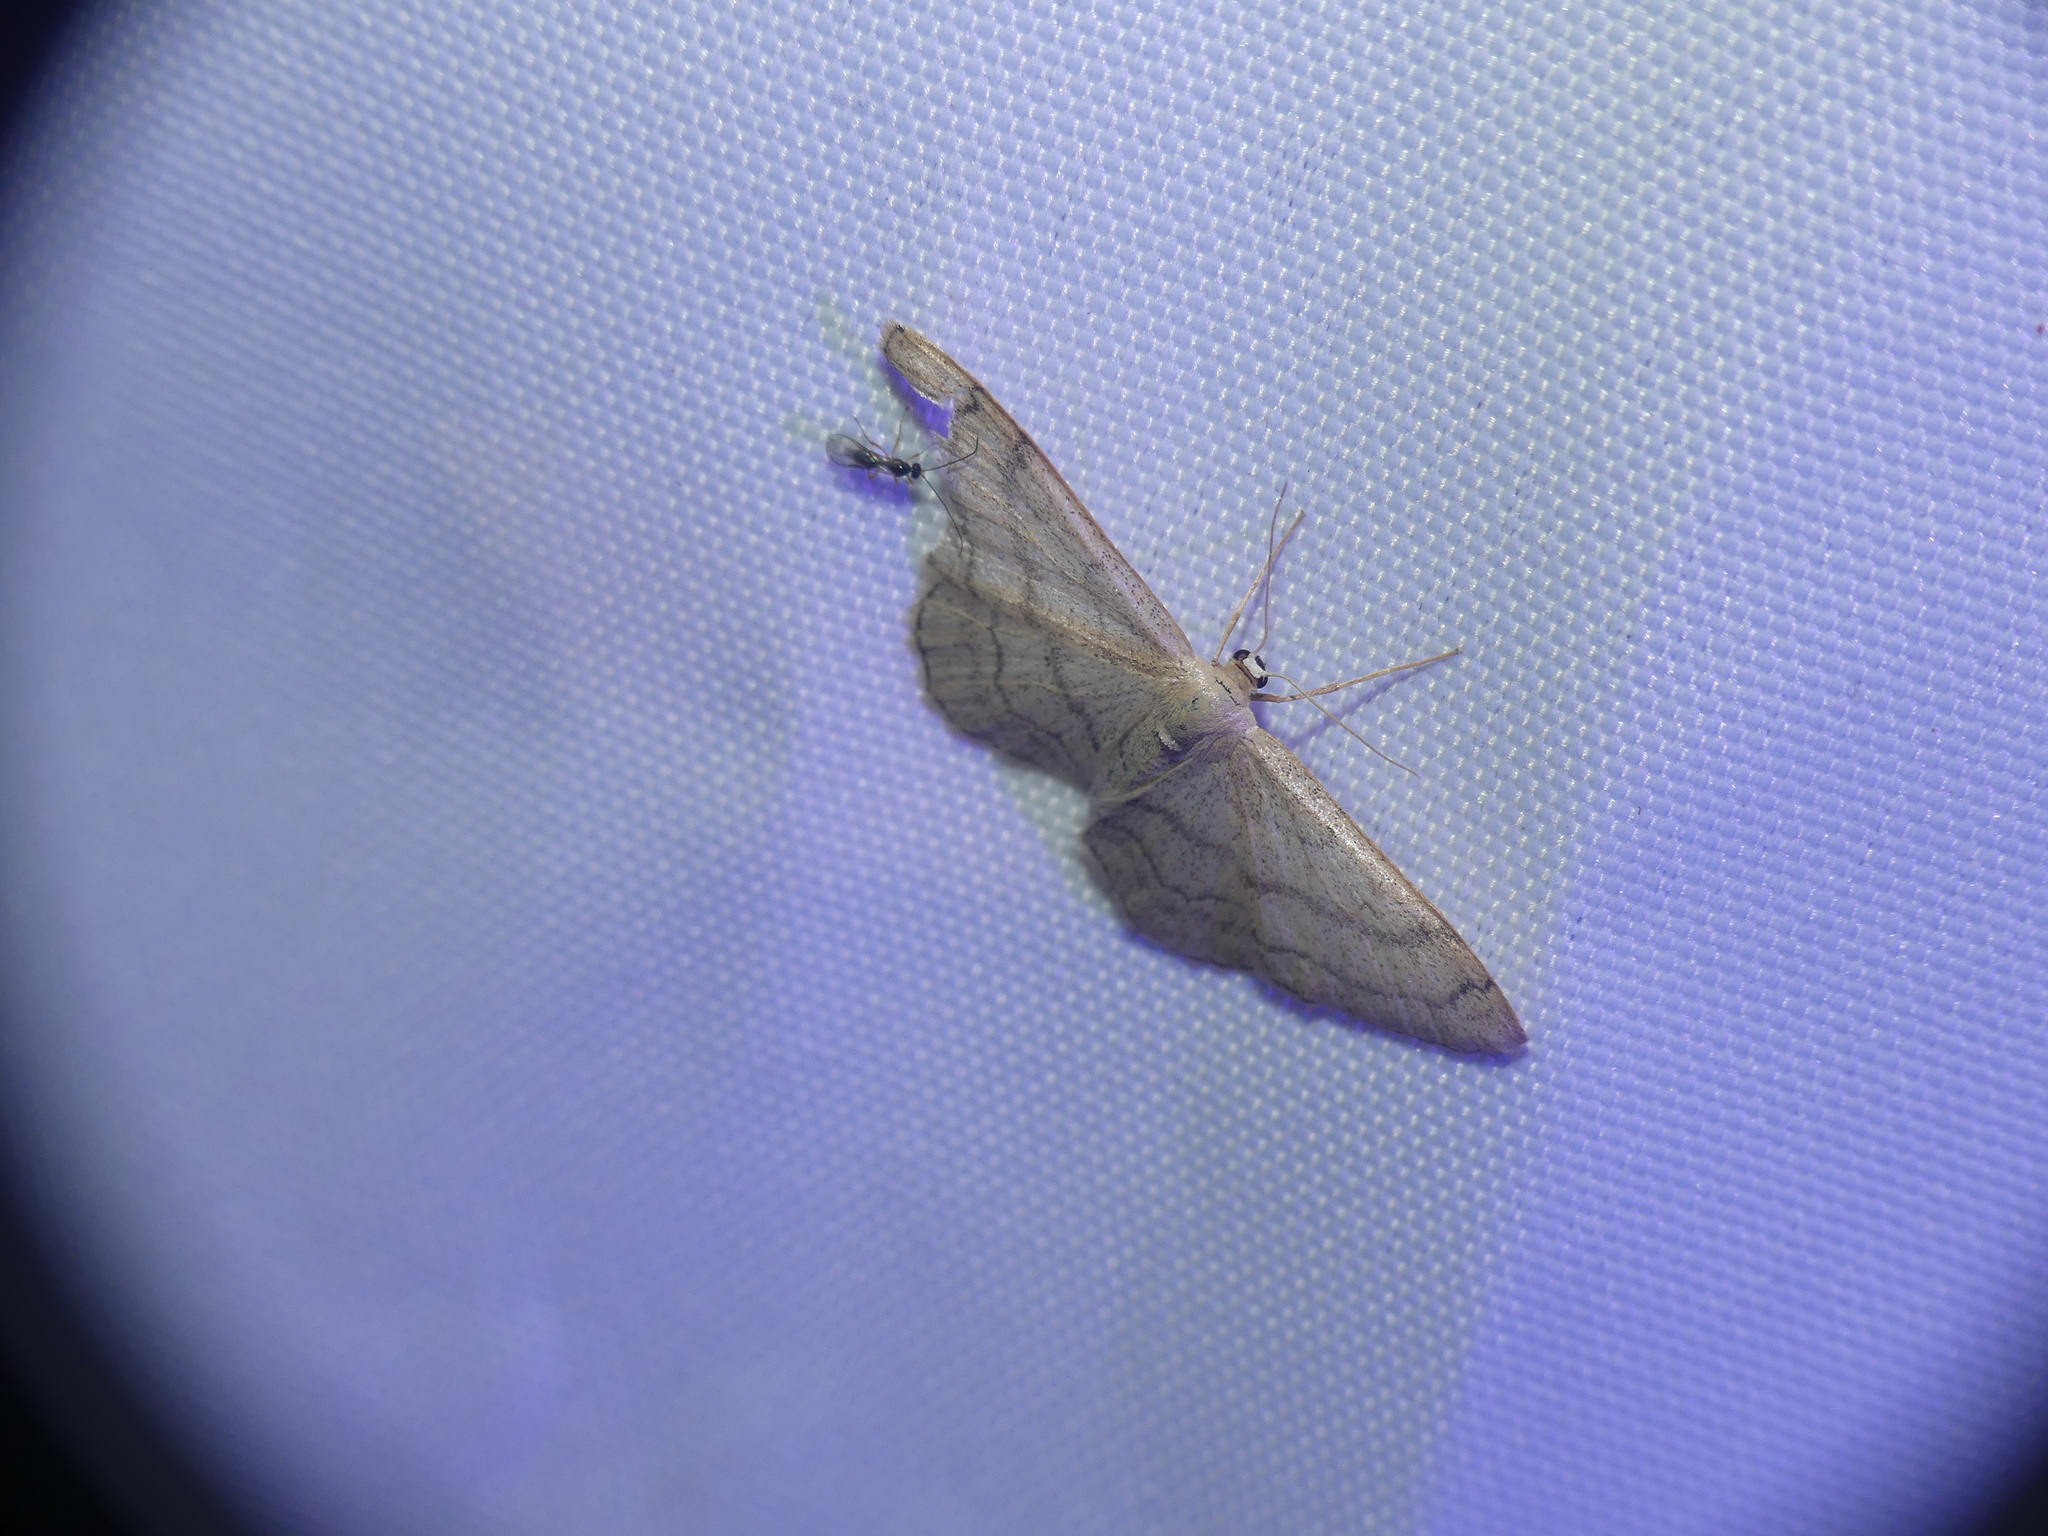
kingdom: Animalia
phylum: Arthropoda
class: Insecta
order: Lepidoptera
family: Geometridae
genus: Idaea
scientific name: Idaea aversata
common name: Riband wave
